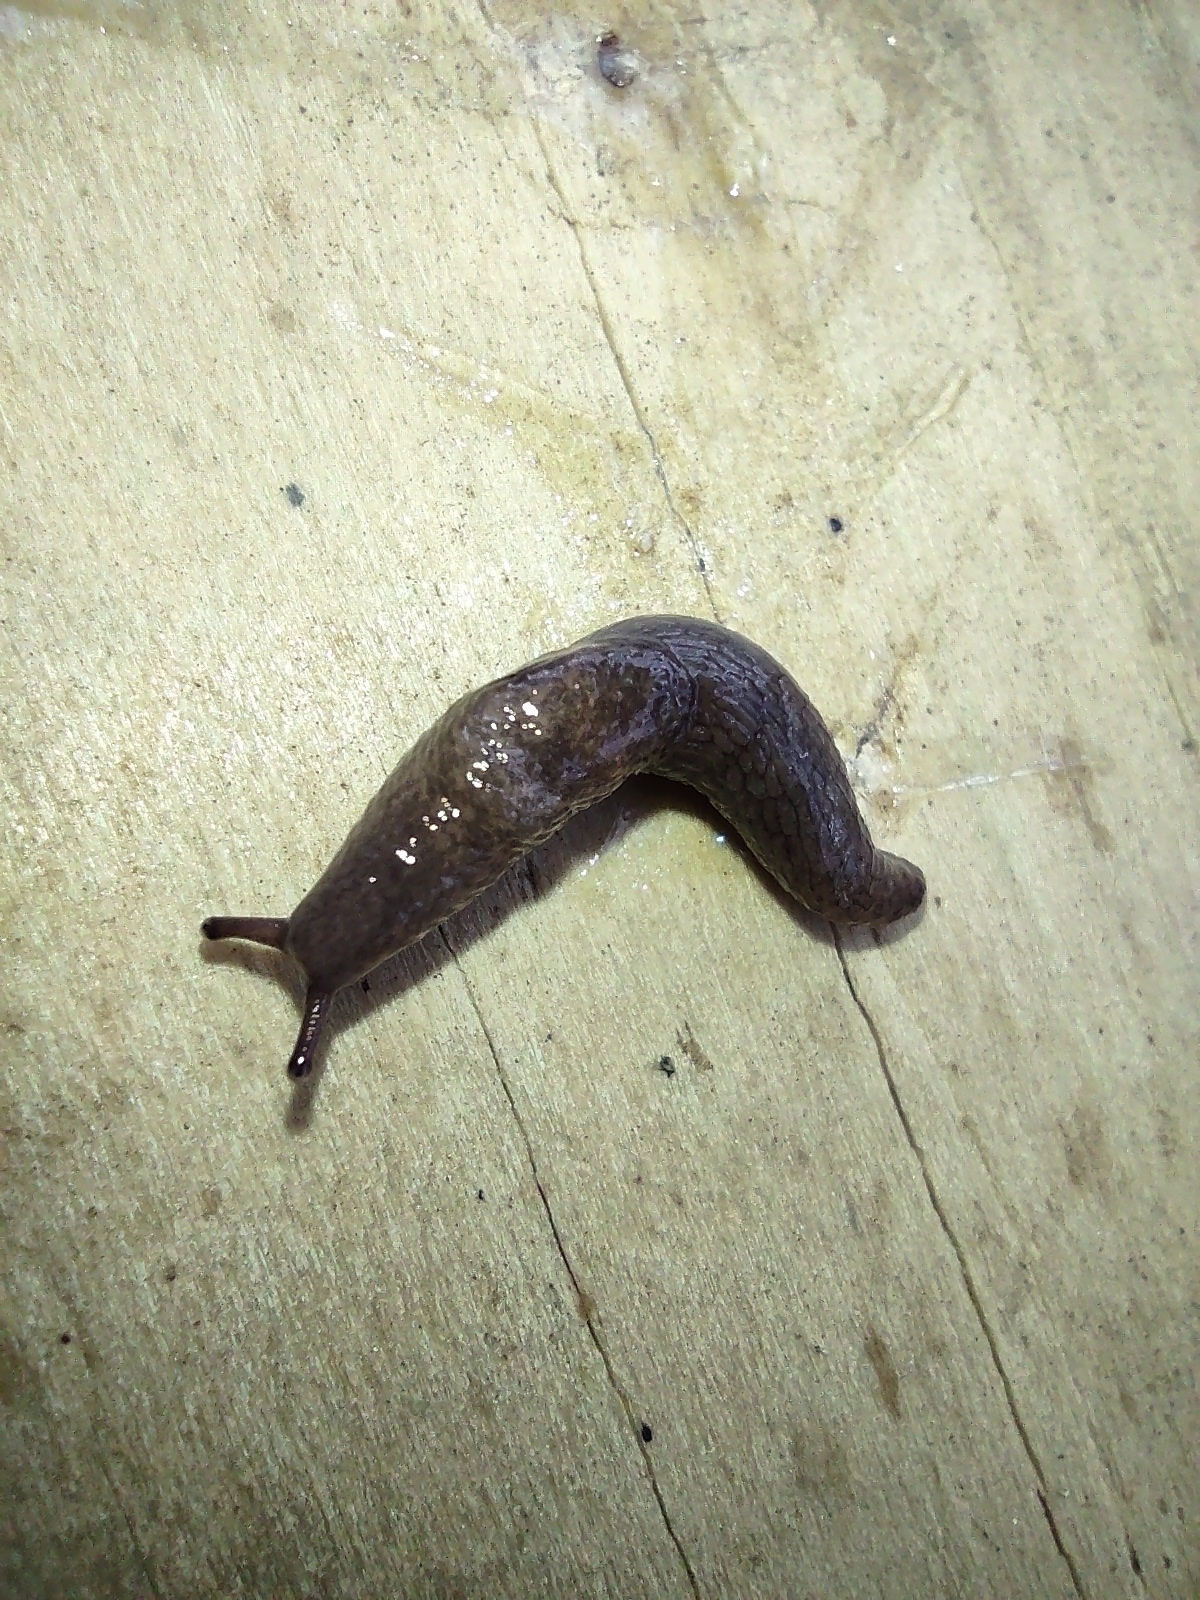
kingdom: Animalia
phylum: Mollusca
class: Gastropoda
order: Stylommatophora
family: Agriolimacidae
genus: Deroceras
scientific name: Deroceras laeve
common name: Marsh slug
